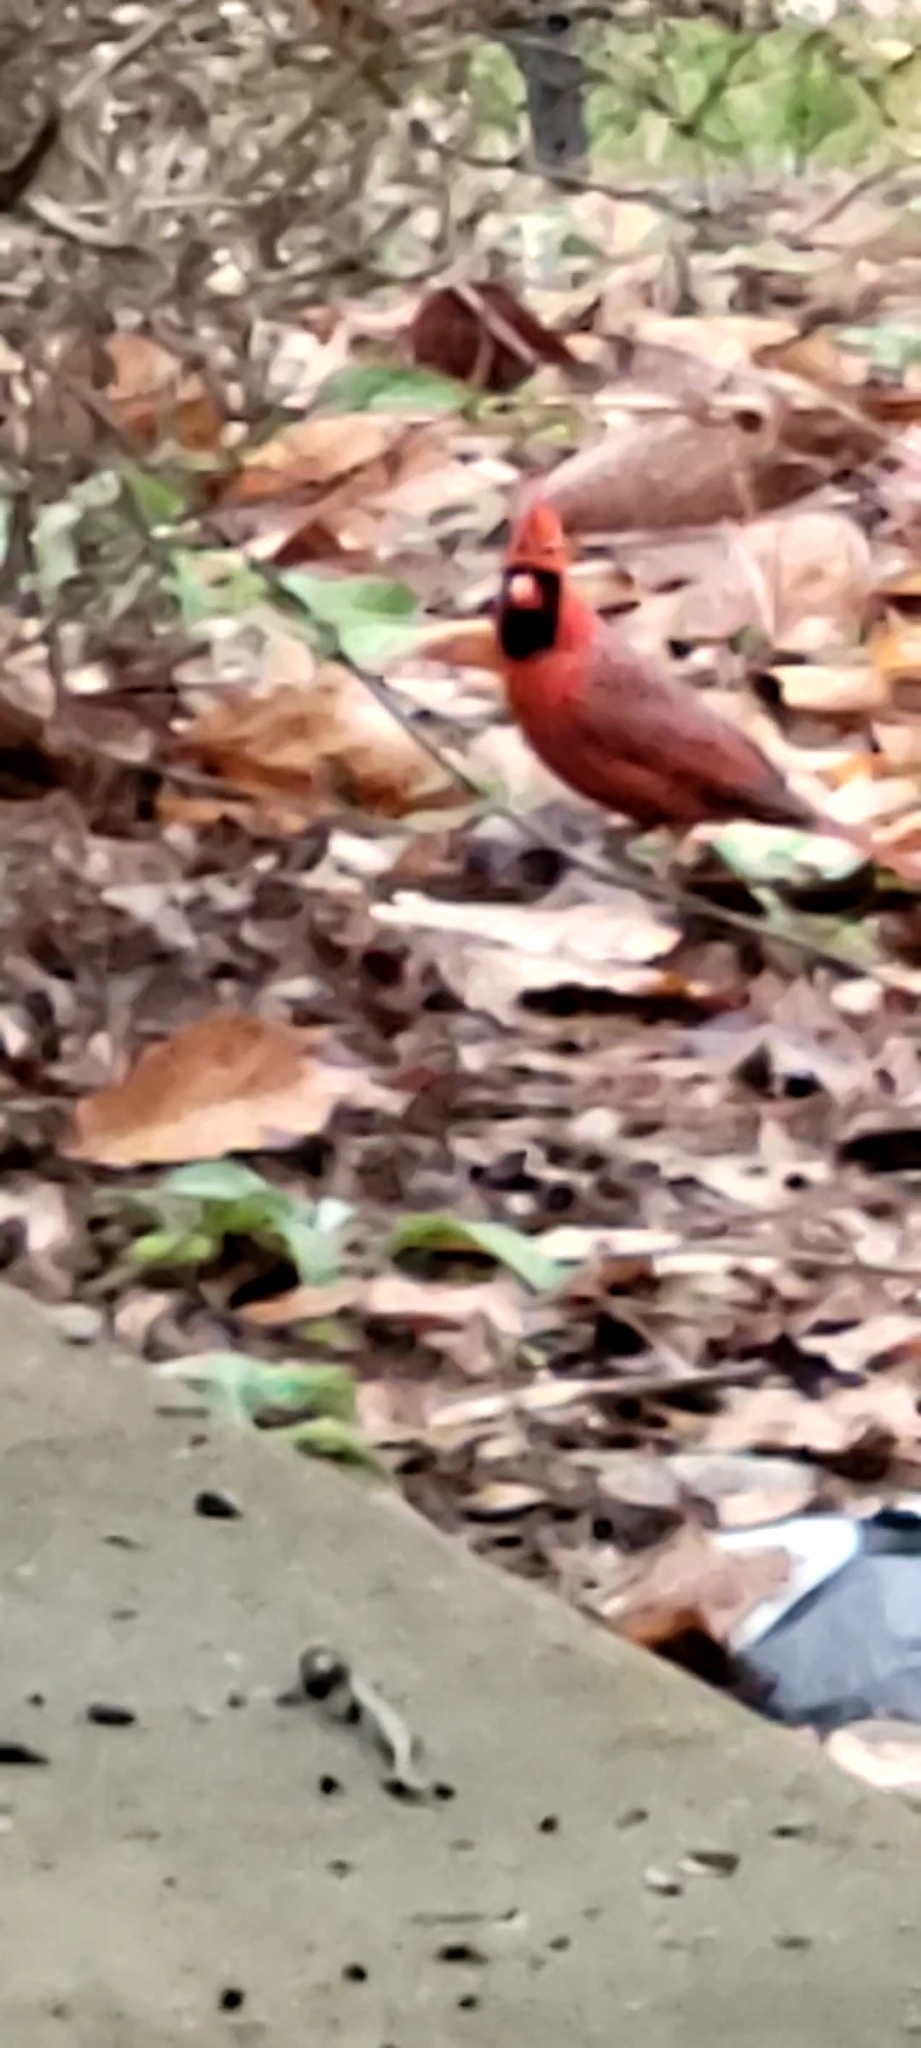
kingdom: Animalia
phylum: Chordata
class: Aves
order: Passeriformes
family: Cardinalidae
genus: Cardinalis
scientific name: Cardinalis cardinalis
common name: Northern cardinal
